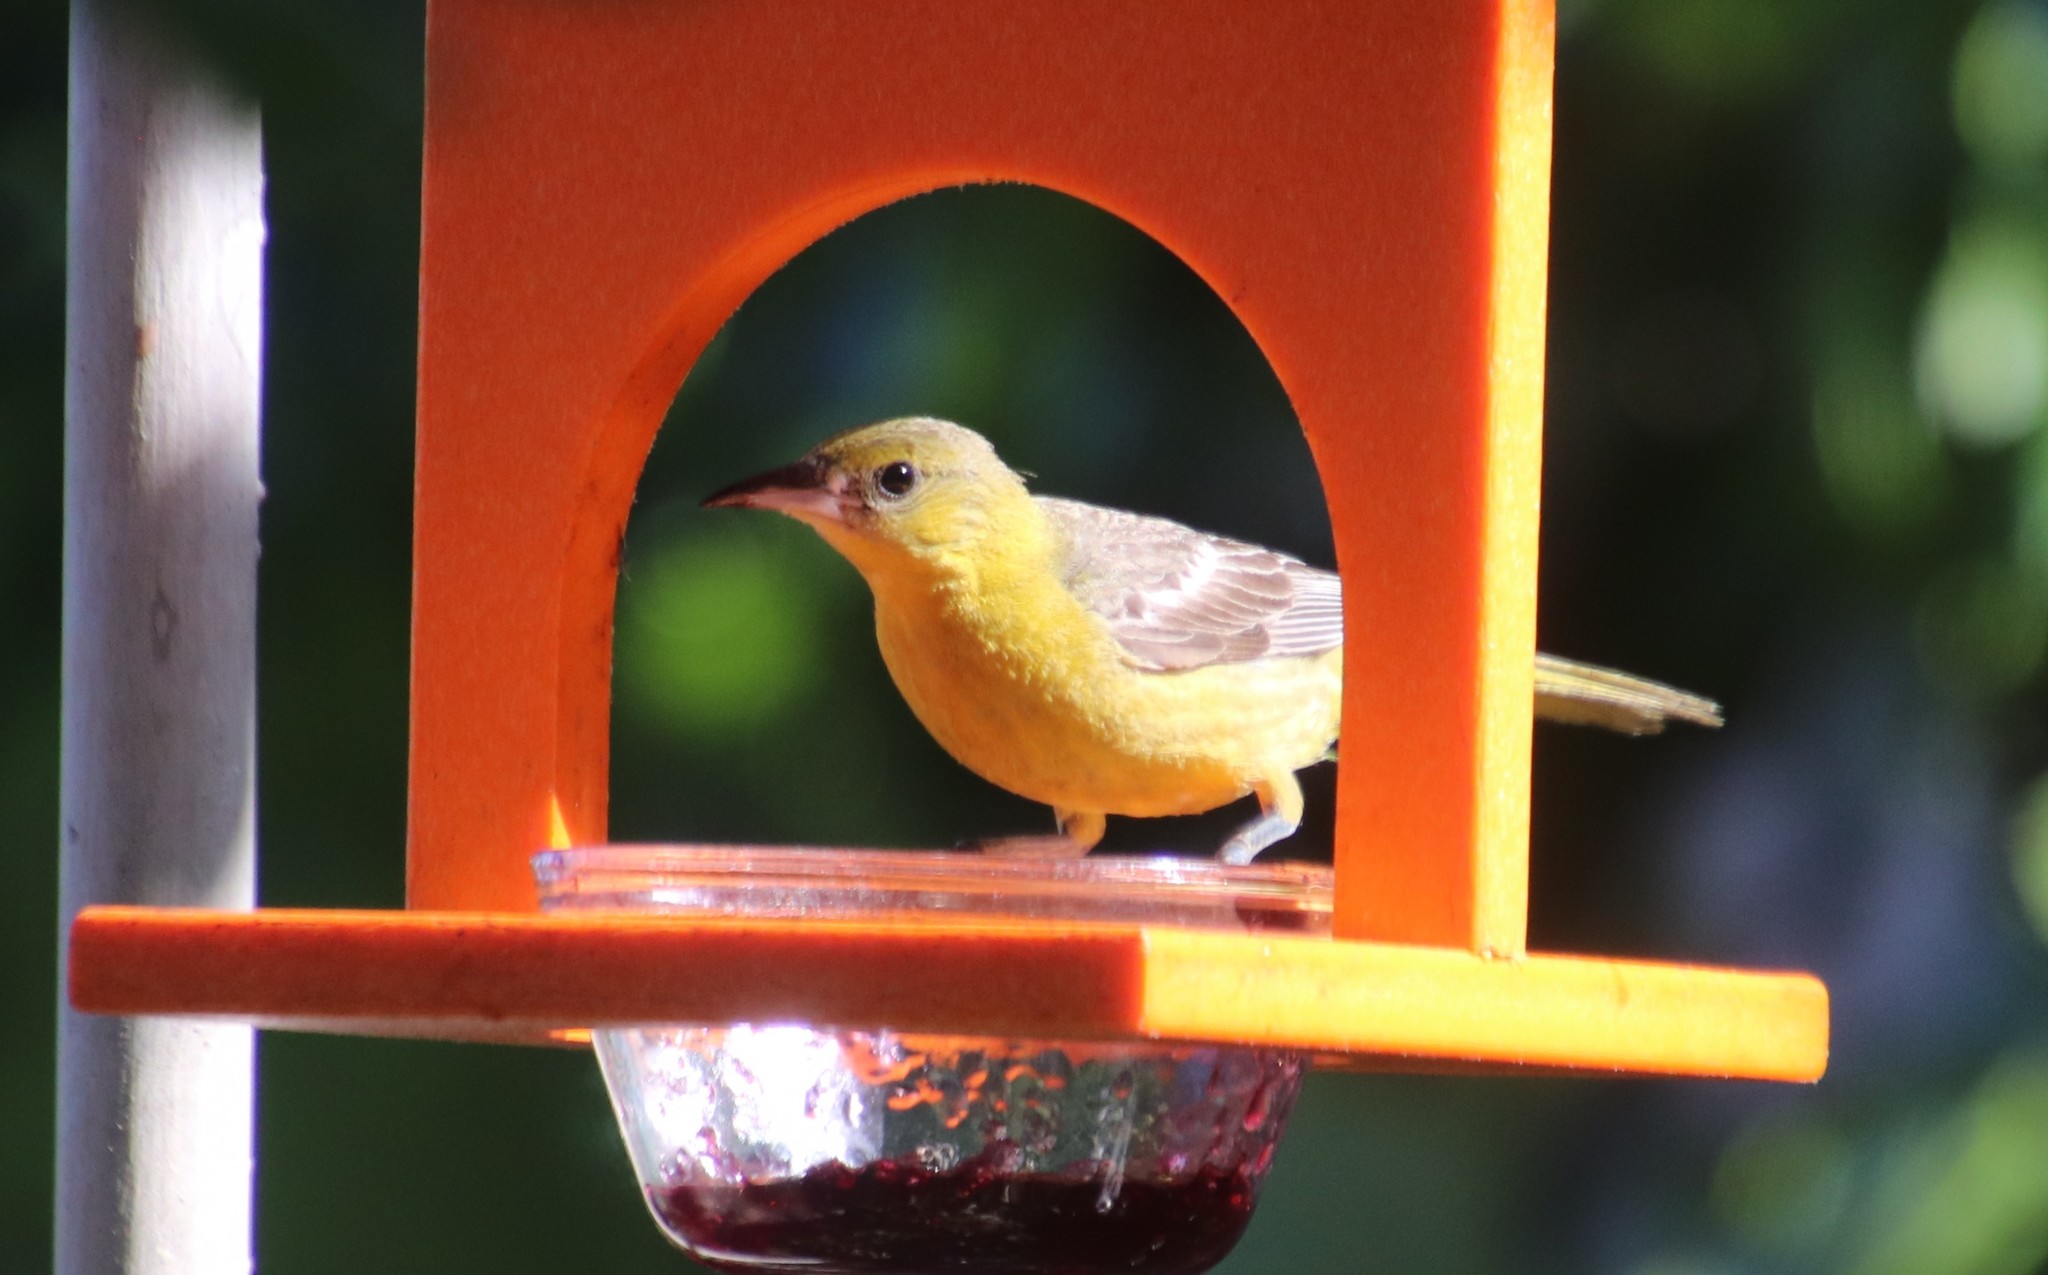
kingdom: Animalia
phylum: Chordata
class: Aves
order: Passeriformes
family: Icteridae
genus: Icterus
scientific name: Icterus cucullatus
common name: Hooded oriole
